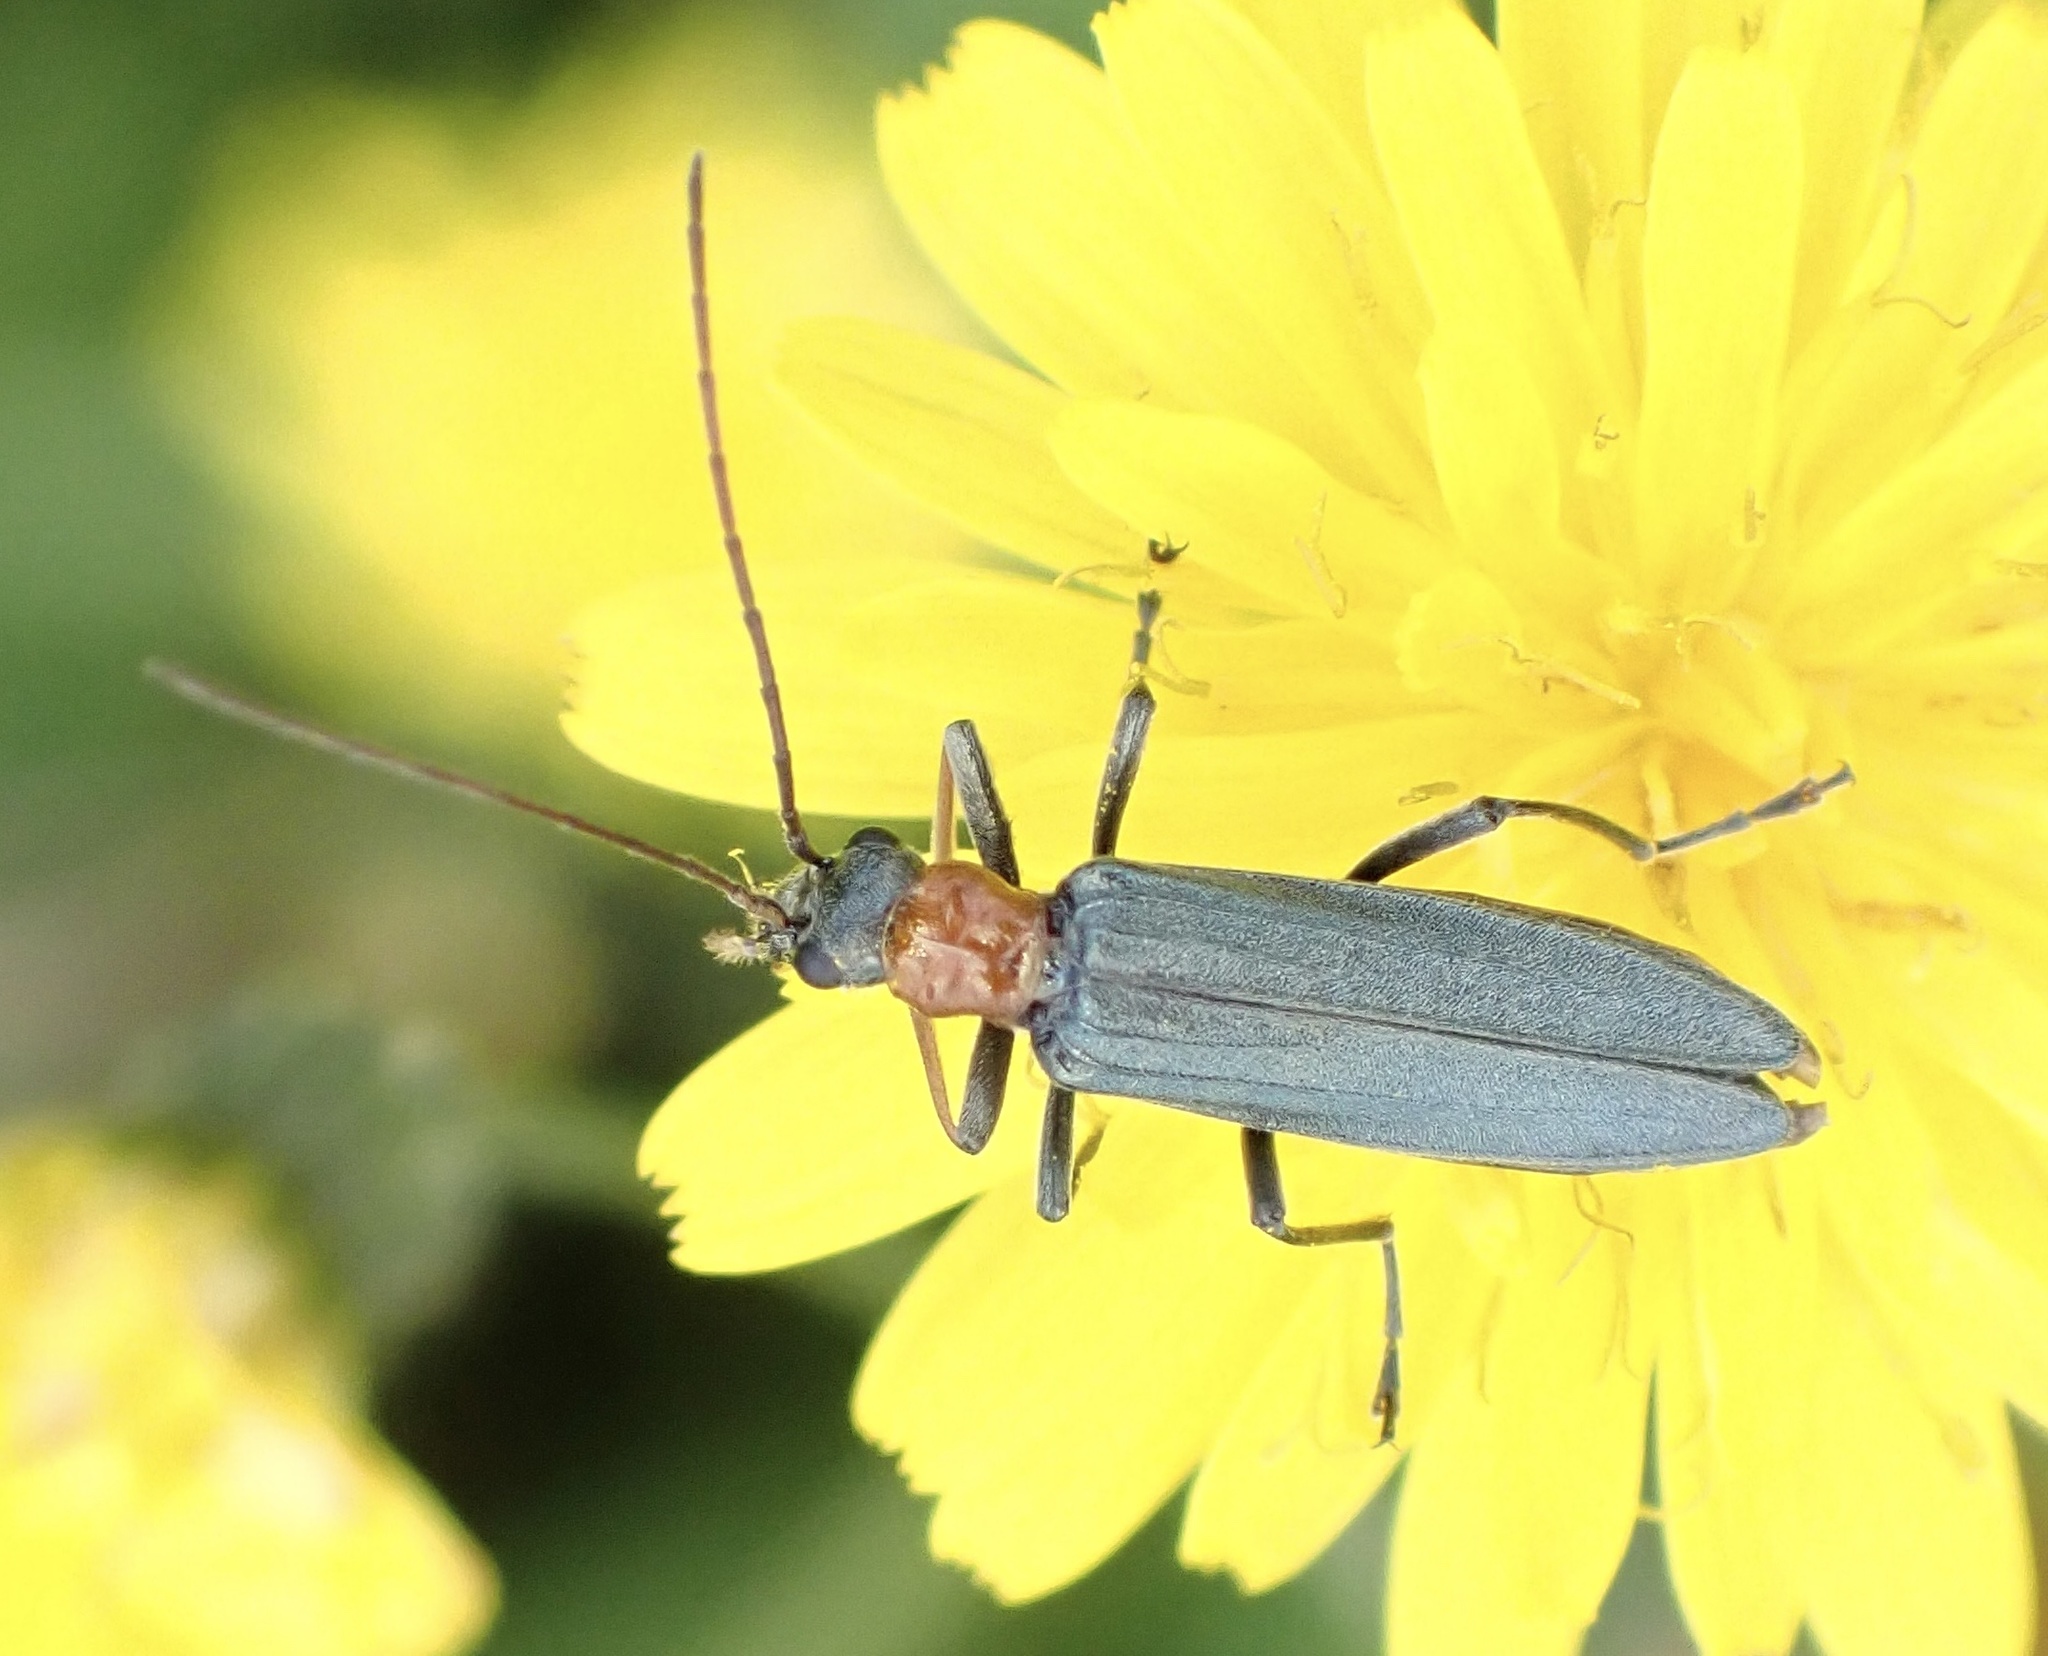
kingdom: Animalia
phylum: Arthropoda
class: Insecta
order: Coleoptera
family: Oedemeridae
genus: Oedemera
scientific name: Oedemera croceicollis
